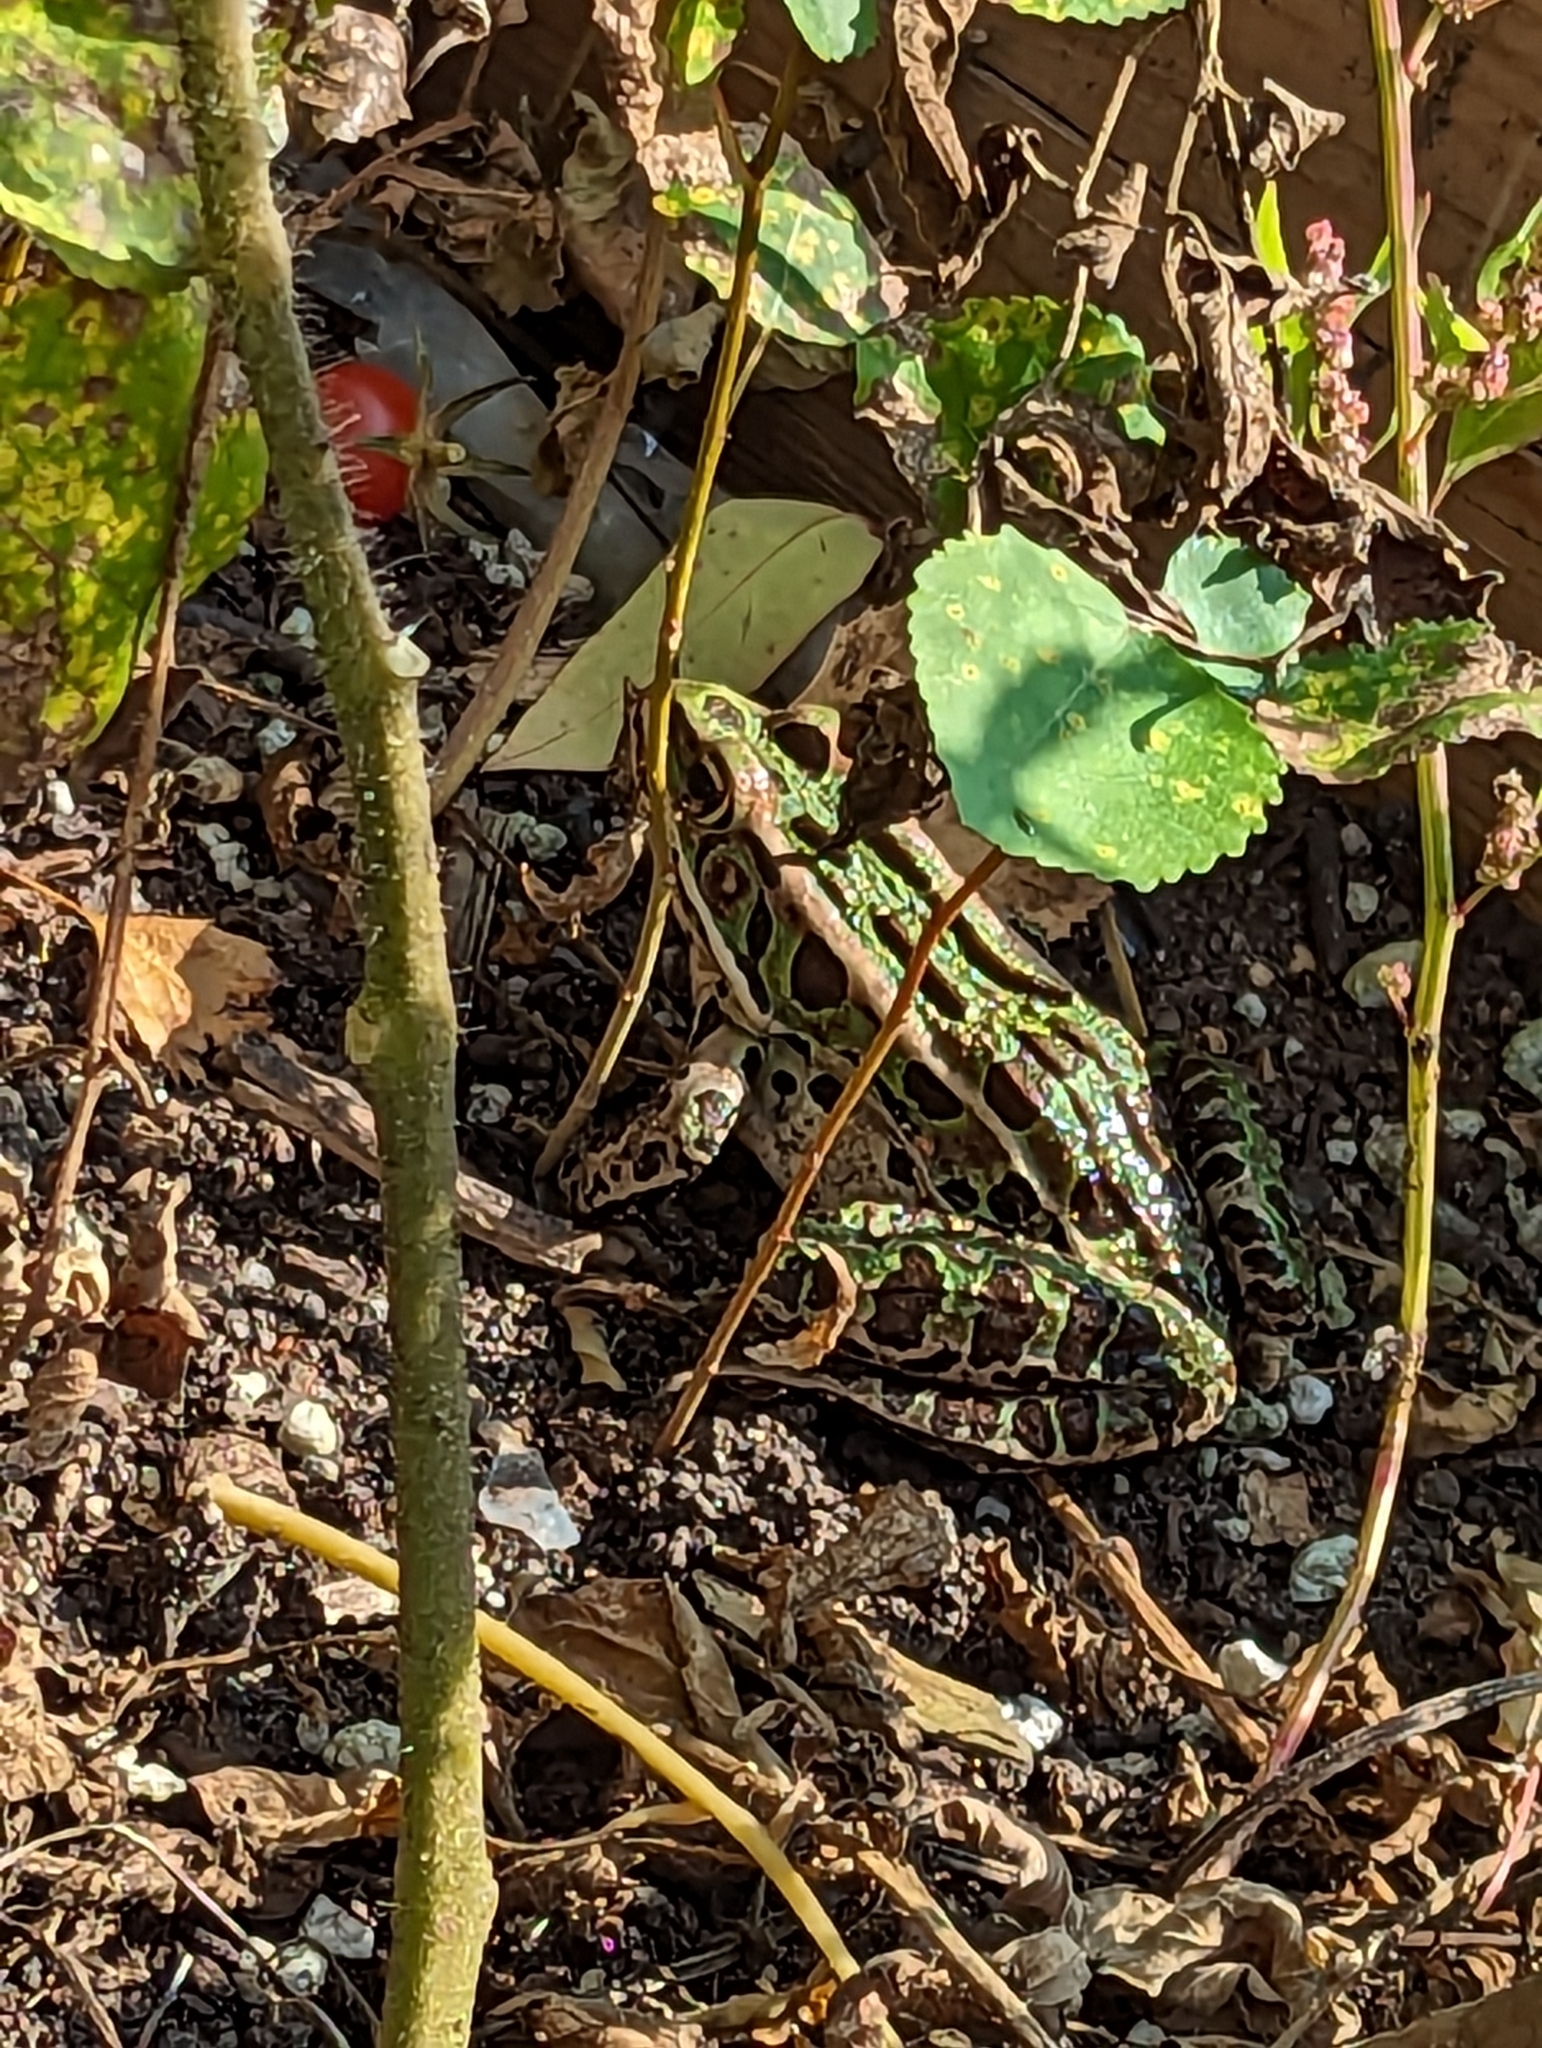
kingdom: Animalia
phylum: Chordata
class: Amphibia
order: Anura
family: Ranidae
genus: Lithobates
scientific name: Lithobates pipiens
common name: Northern leopard frog
